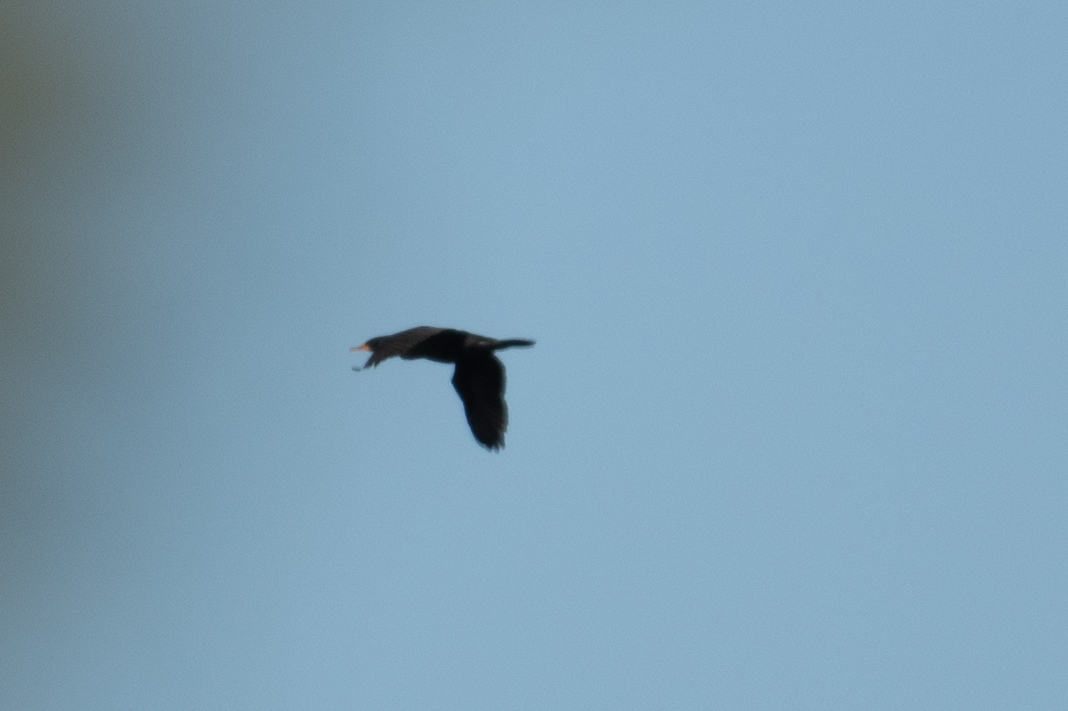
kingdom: Animalia
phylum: Chordata
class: Aves
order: Suliformes
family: Phalacrocoracidae
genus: Phalacrocorax
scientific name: Phalacrocorax auritus
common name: Double-crested cormorant
